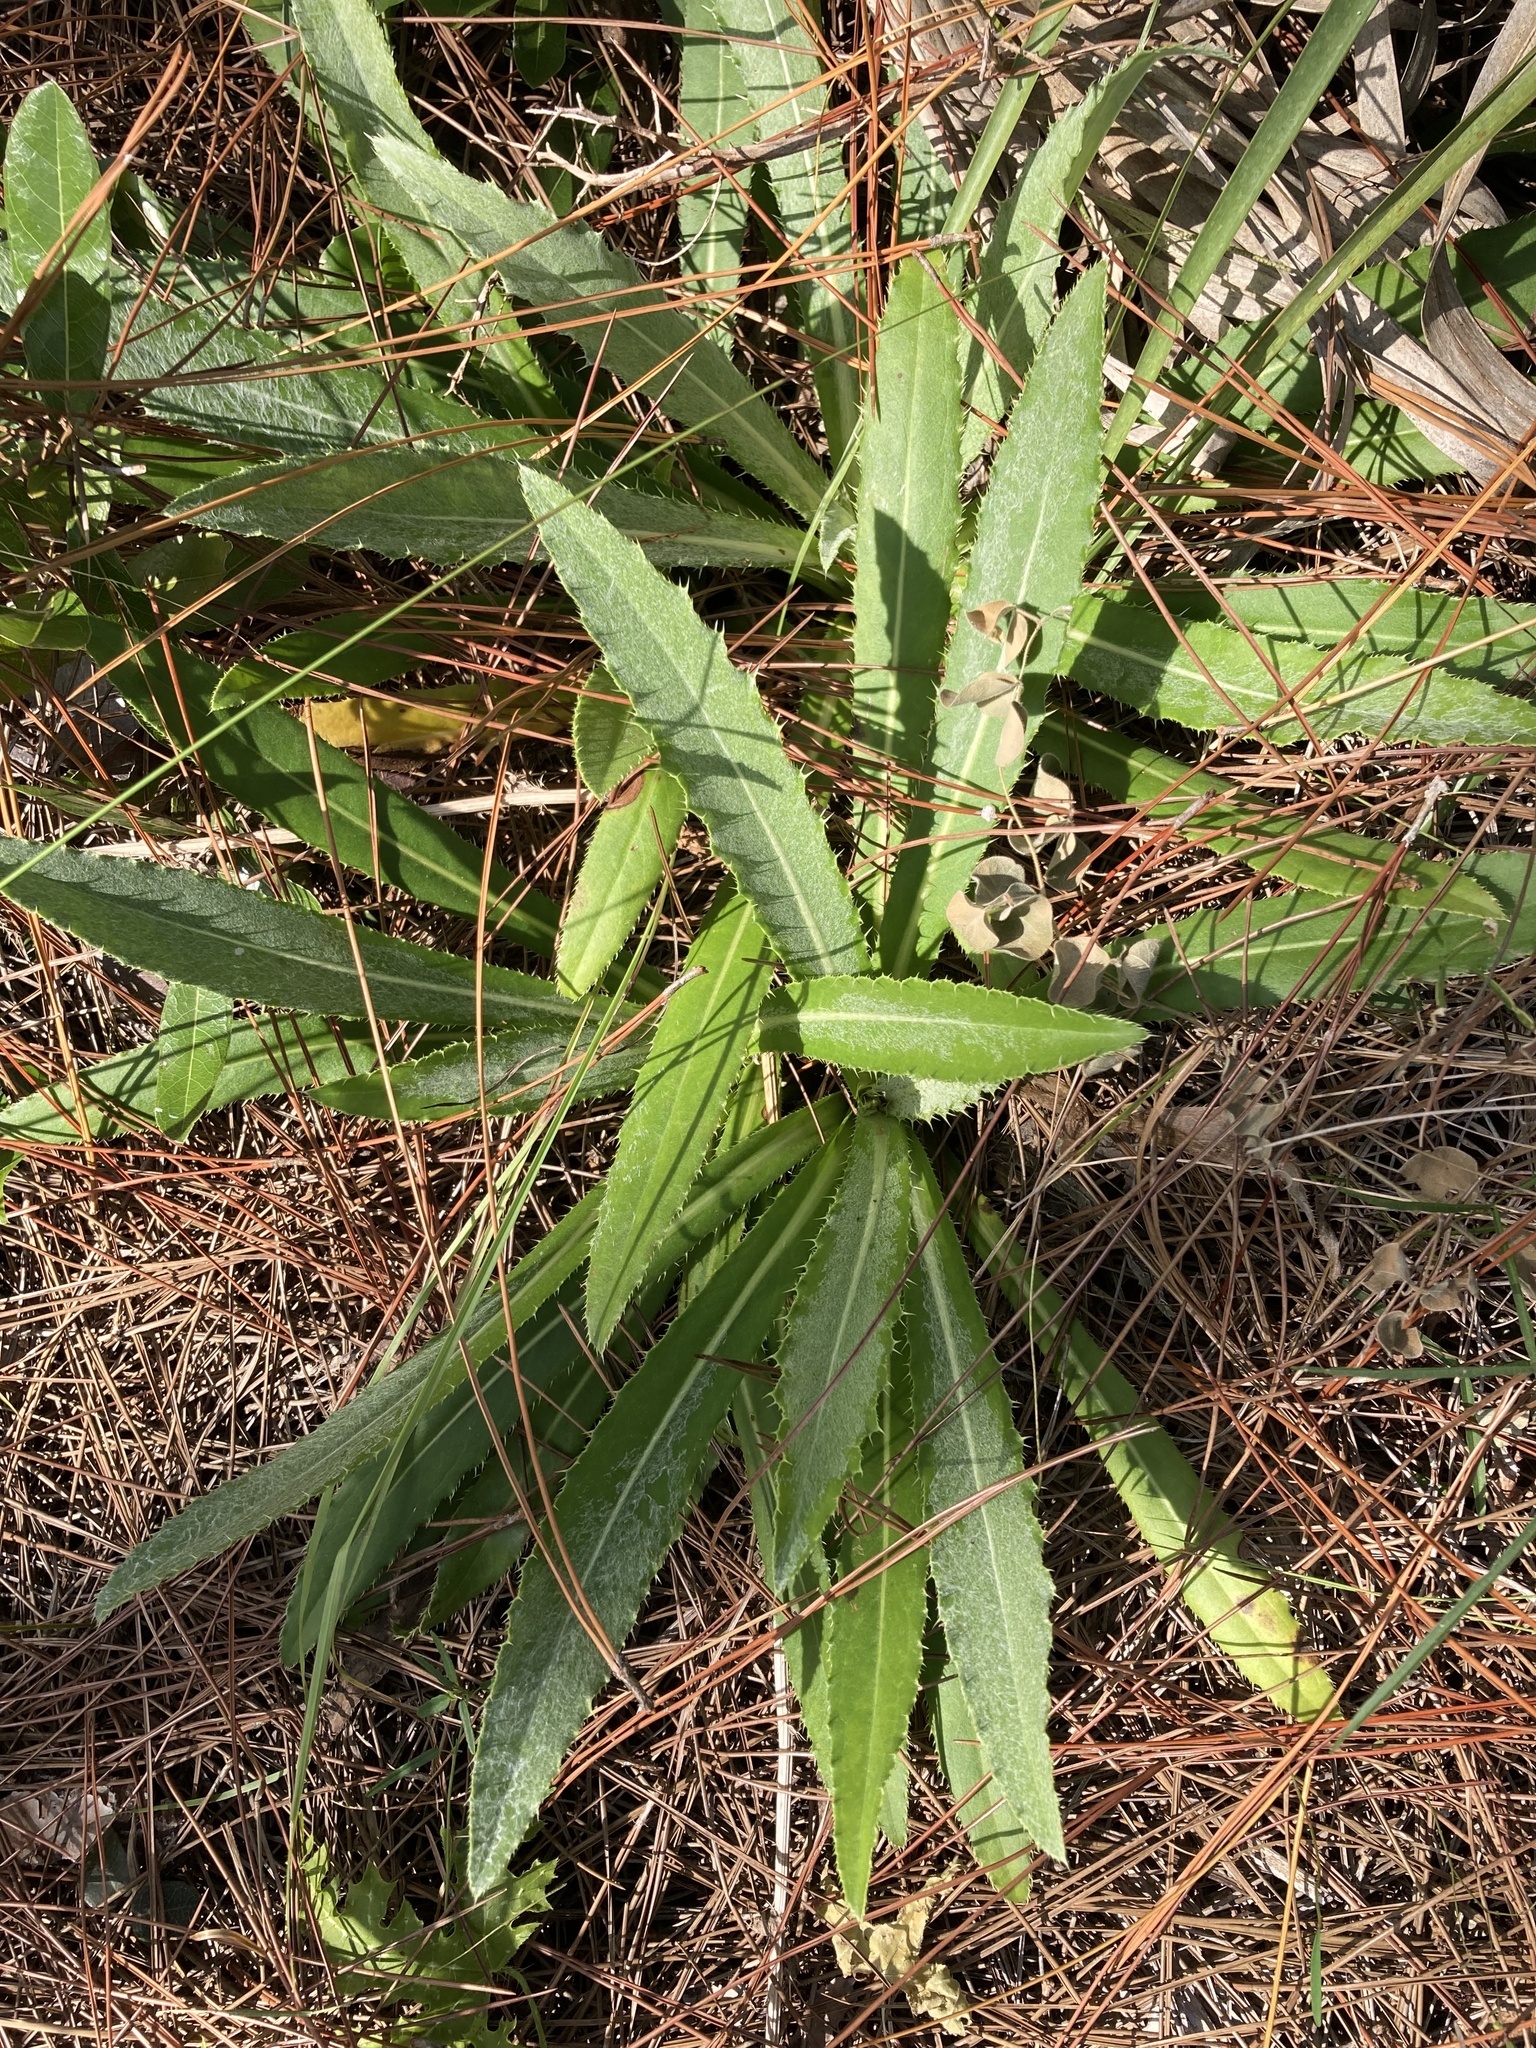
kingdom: Plantae
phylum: Tracheophyta
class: Magnoliopsida
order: Asterales
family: Asteraceae
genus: Cirsium
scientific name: Cirsium horridulum
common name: Bristly thistle
